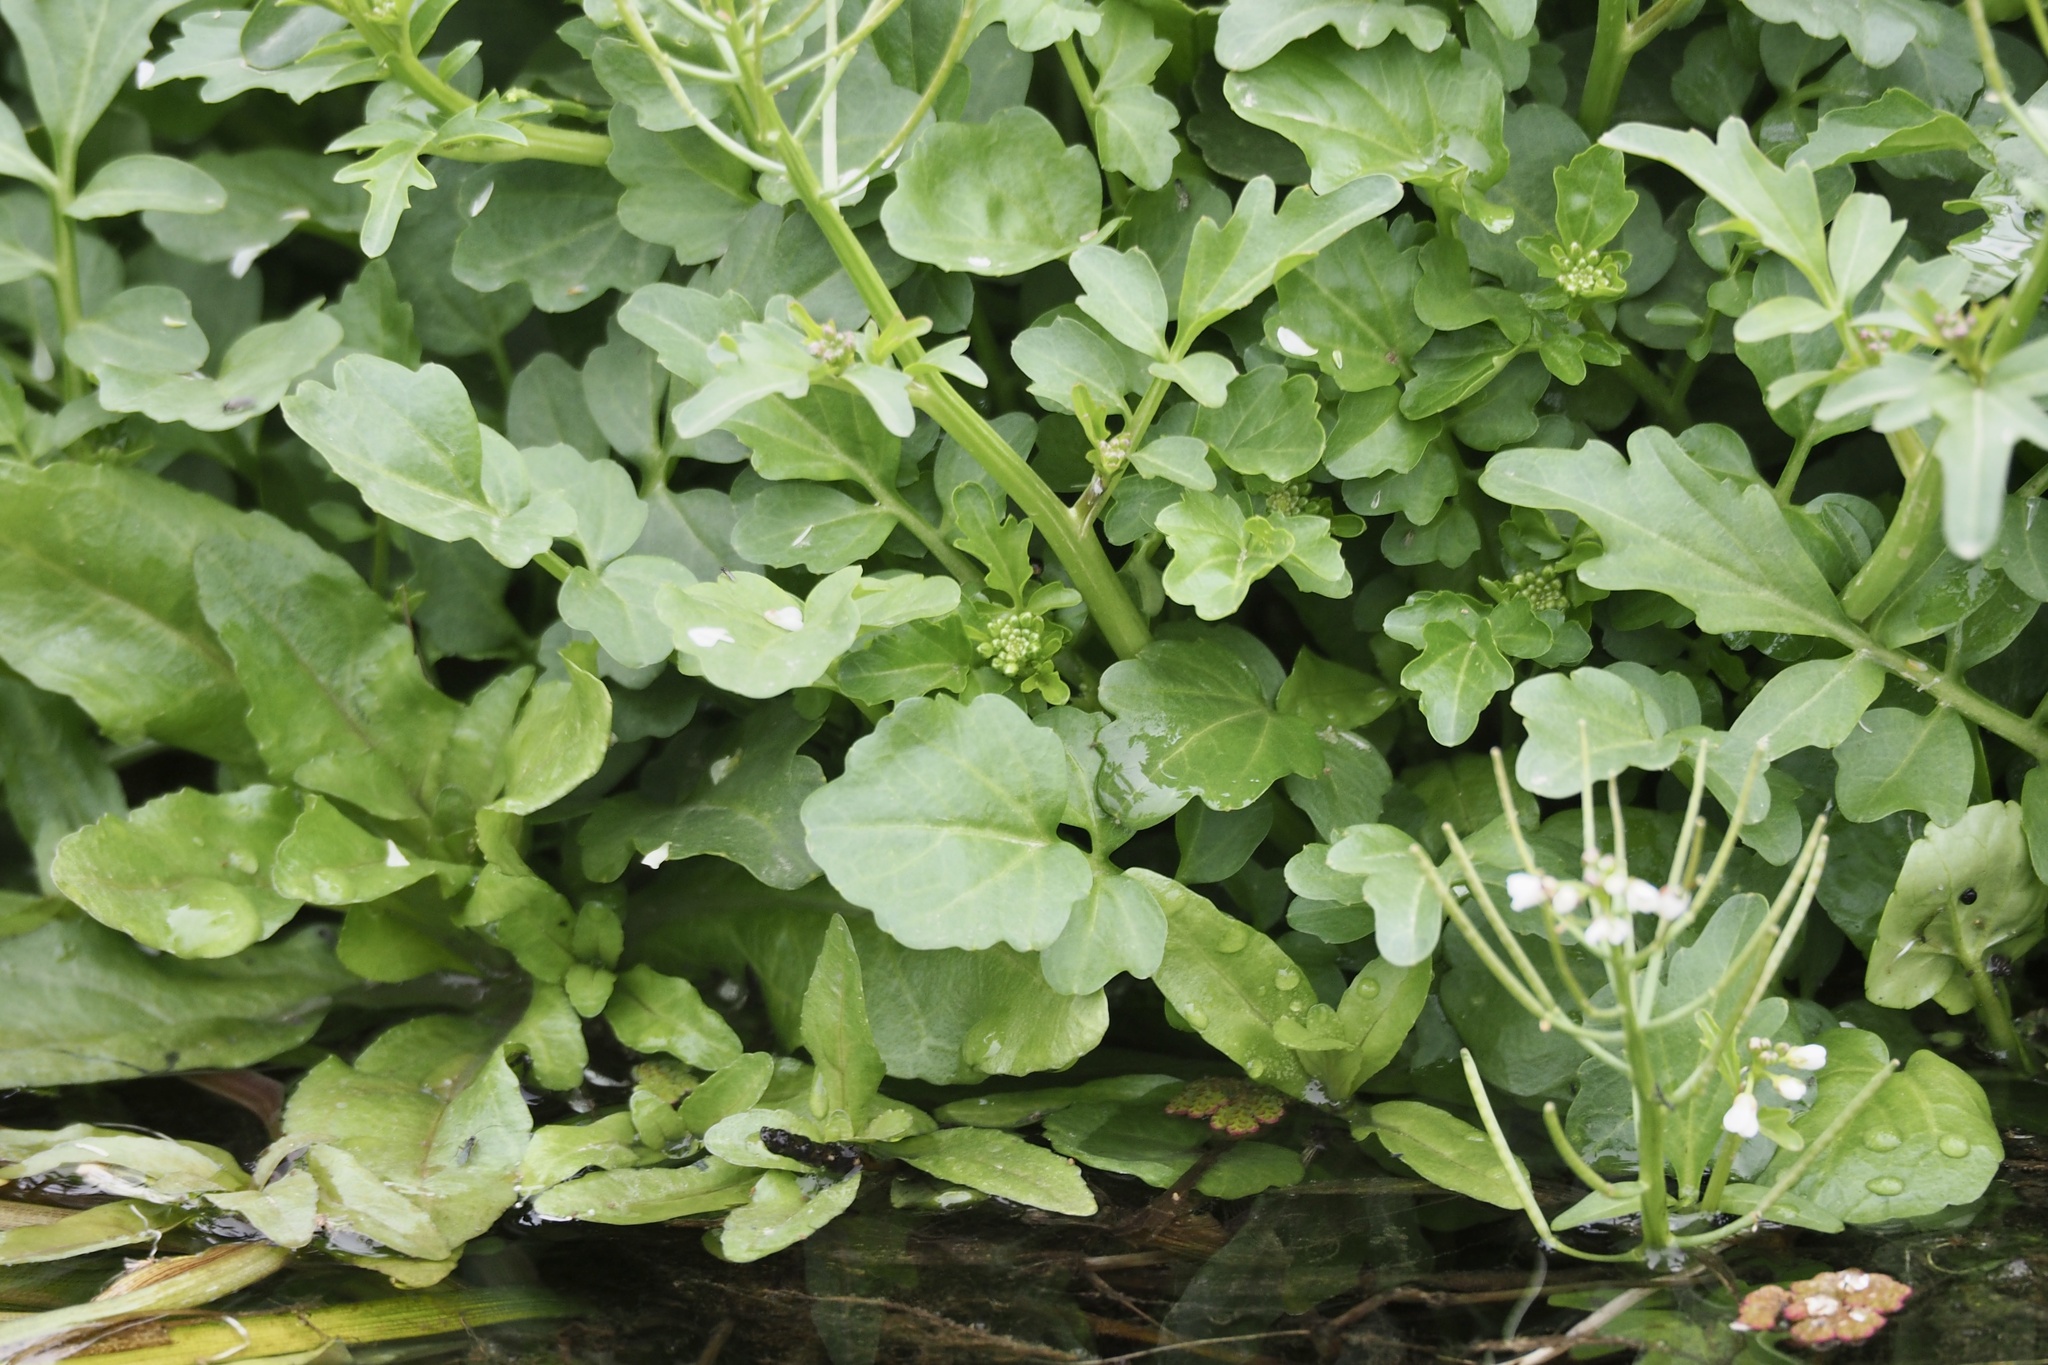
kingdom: Plantae
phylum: Tracheophyta
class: Magnoliopsida
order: Brassicales
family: Brassicaceae
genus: Cardamine
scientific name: Cardamine scutata
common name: Japanese bittercress
